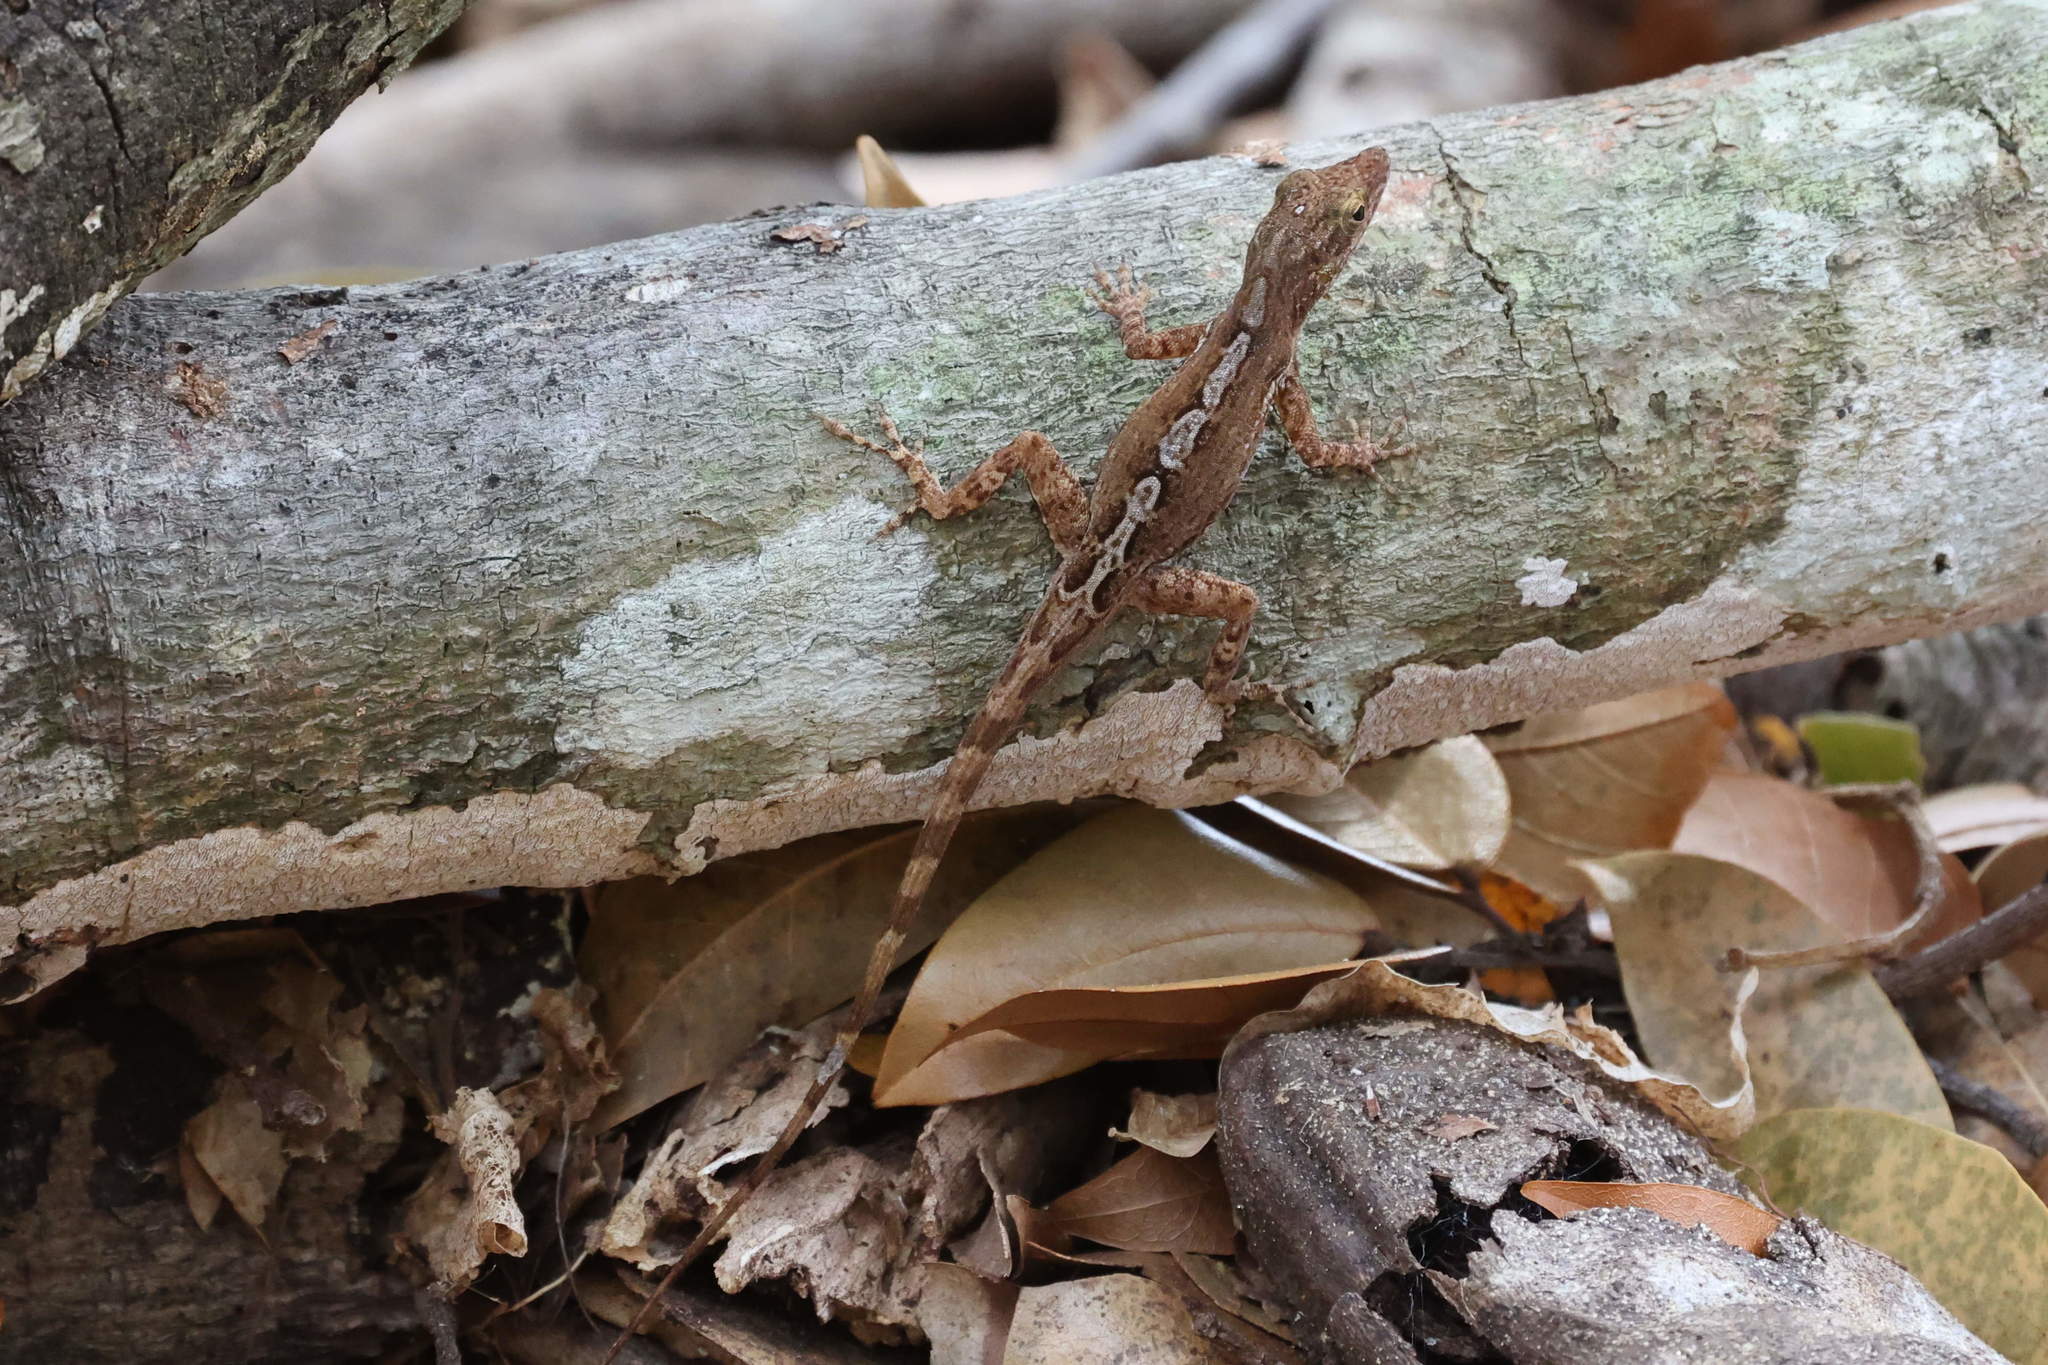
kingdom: Animalia
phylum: Chordata
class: Squamata
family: Dactyloidae
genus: Anolis
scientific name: Anolis marmoratus
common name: Guadeloupe anole
